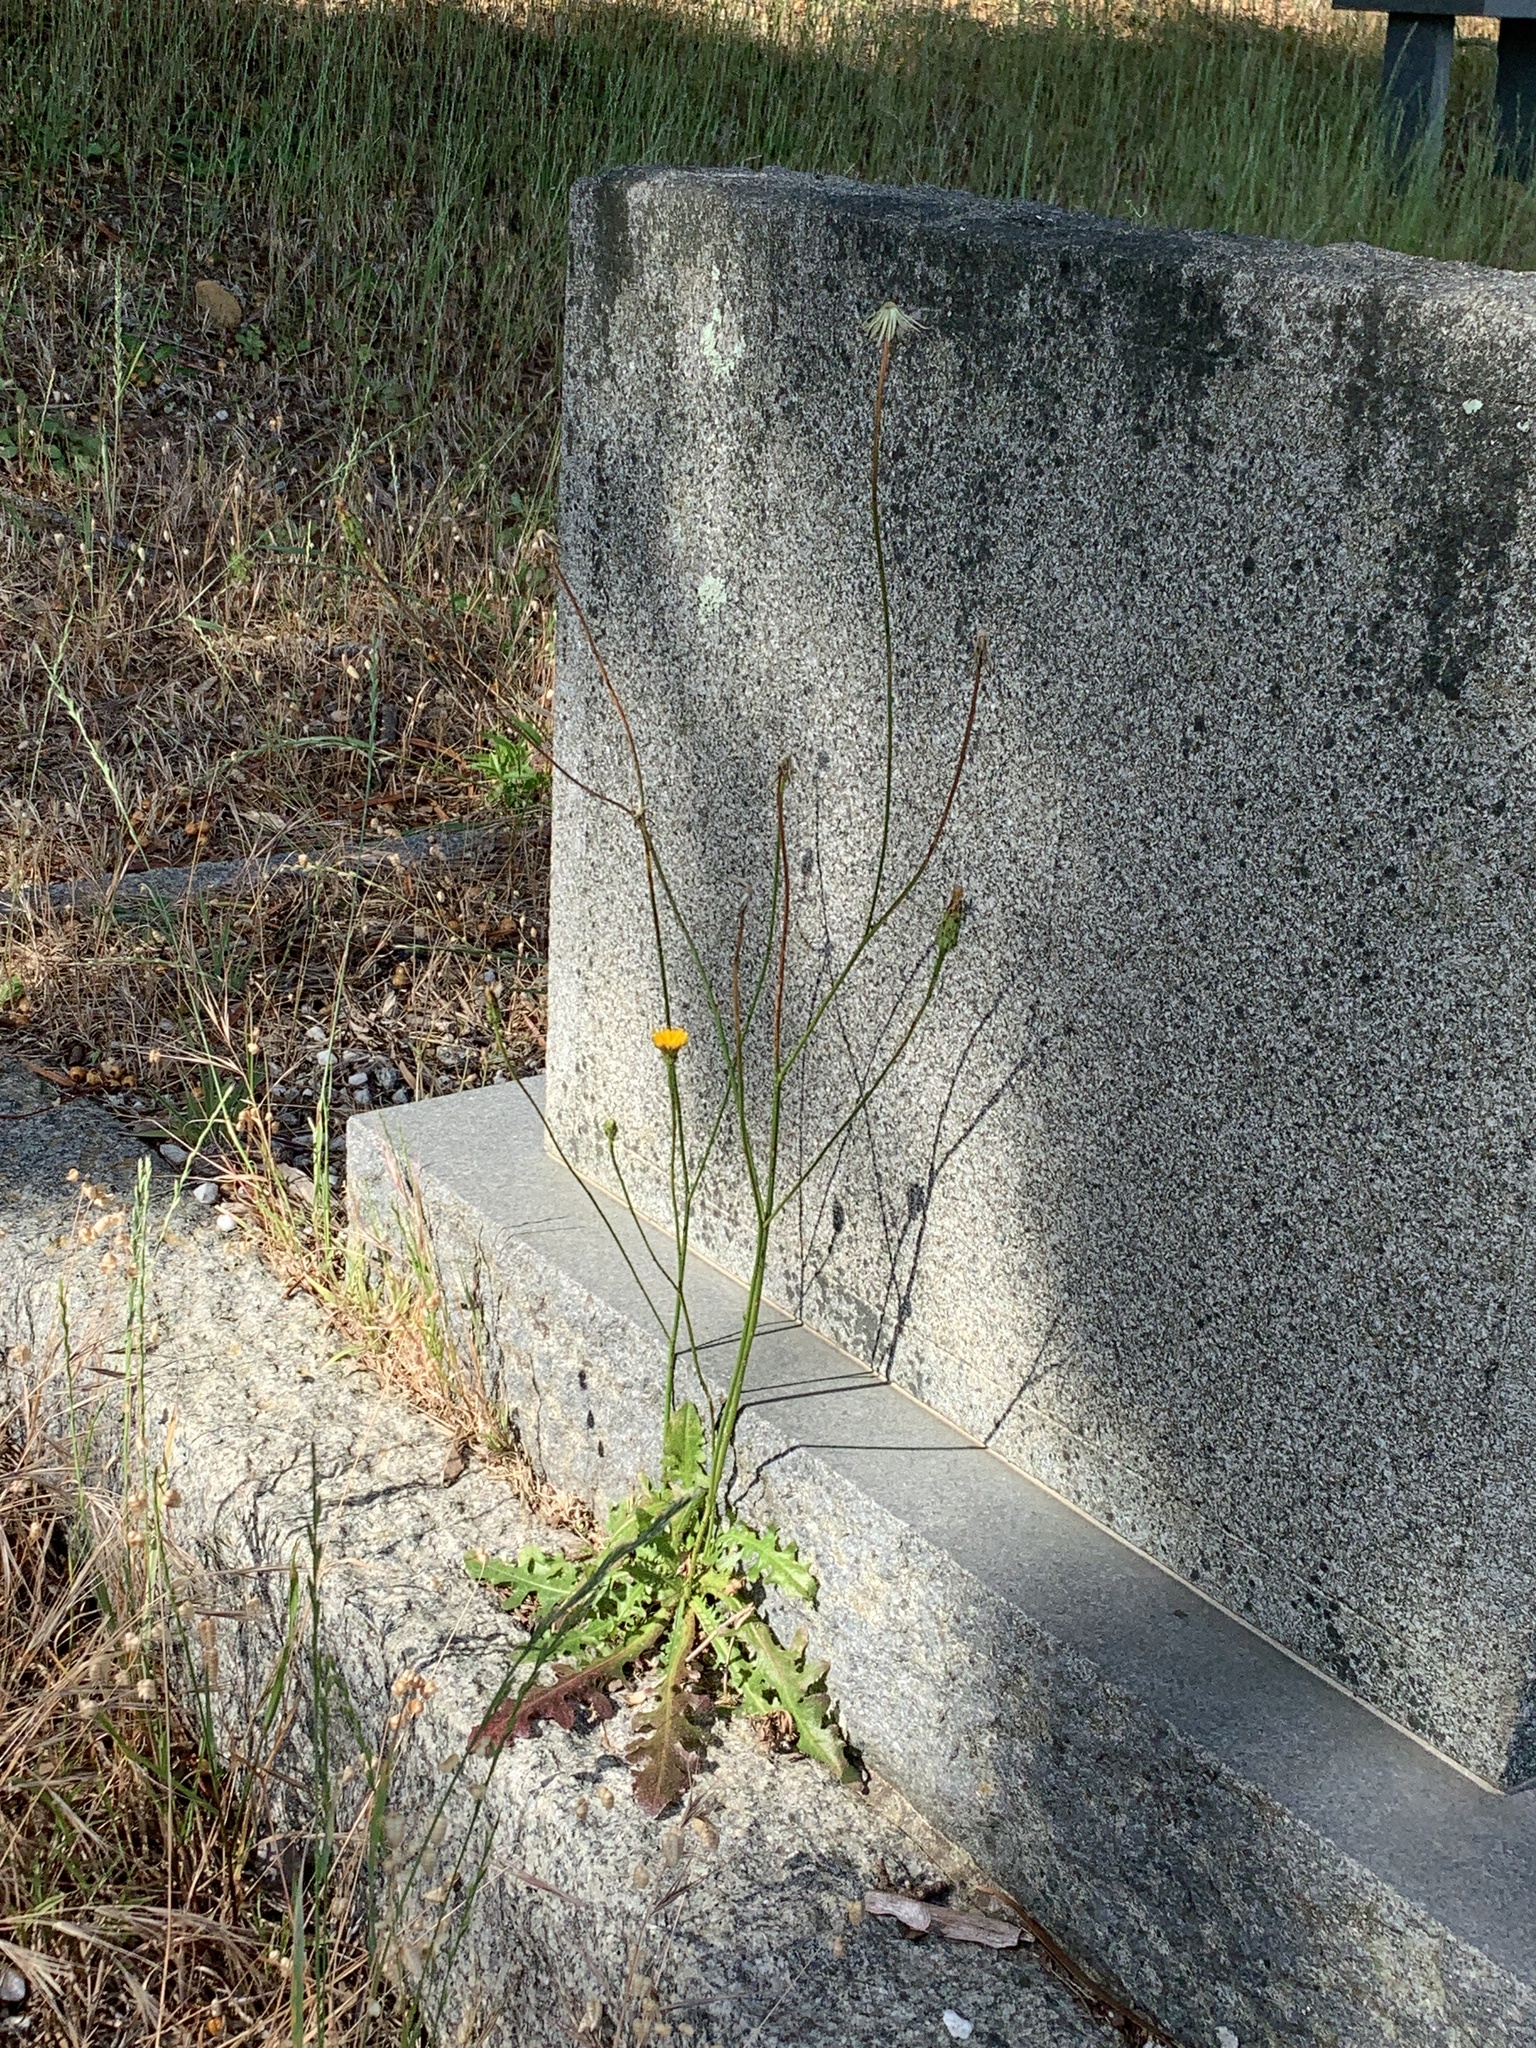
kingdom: Plantae
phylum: Tracheophyta
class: Magnoliopsida
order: Asterales
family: Asteraceae
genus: Hypochaeris
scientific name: Hypochaeris radicata
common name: Flatweed
